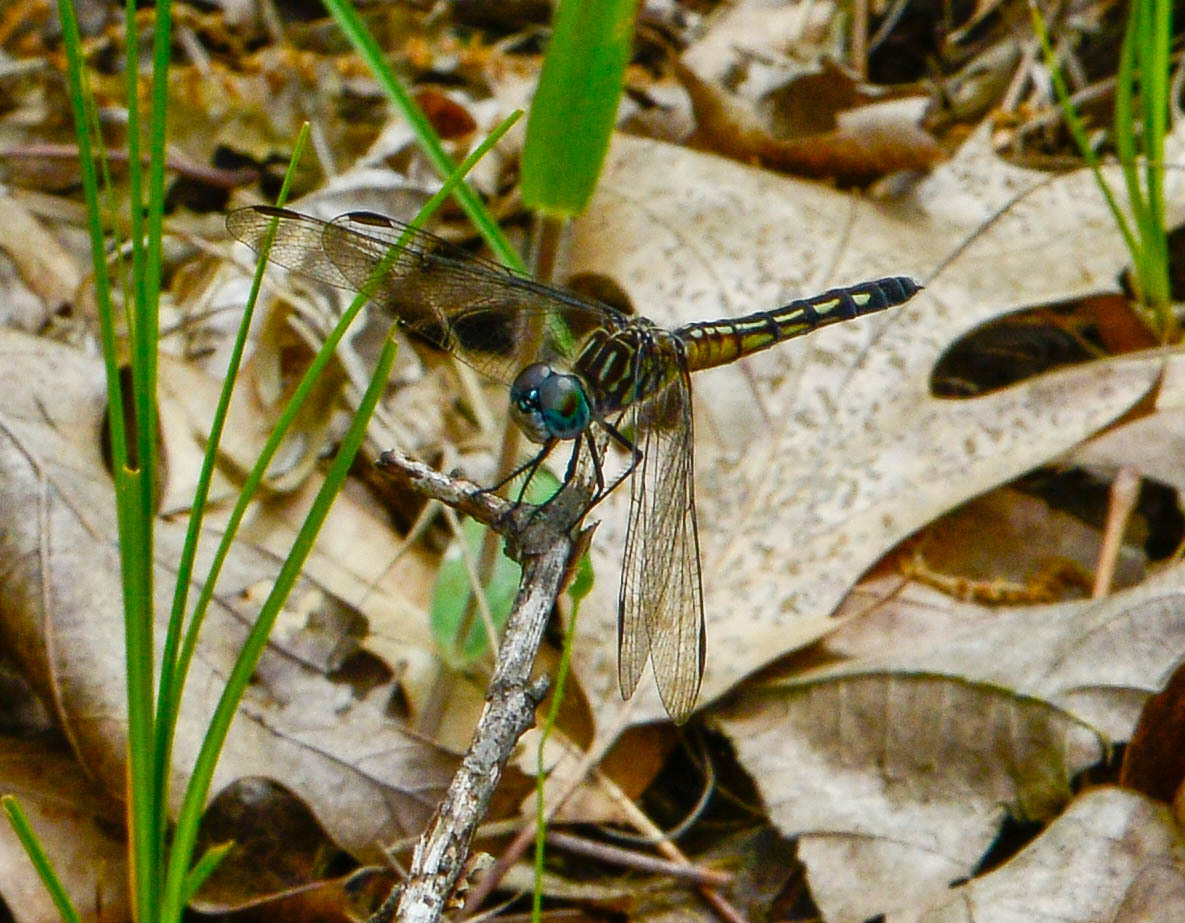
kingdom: Animalia
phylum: Arthropoda
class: Insecta
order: Odonata
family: Libellulidae
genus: Pachydiplax
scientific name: Pachydiplax longipennis
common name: Blue dasher
